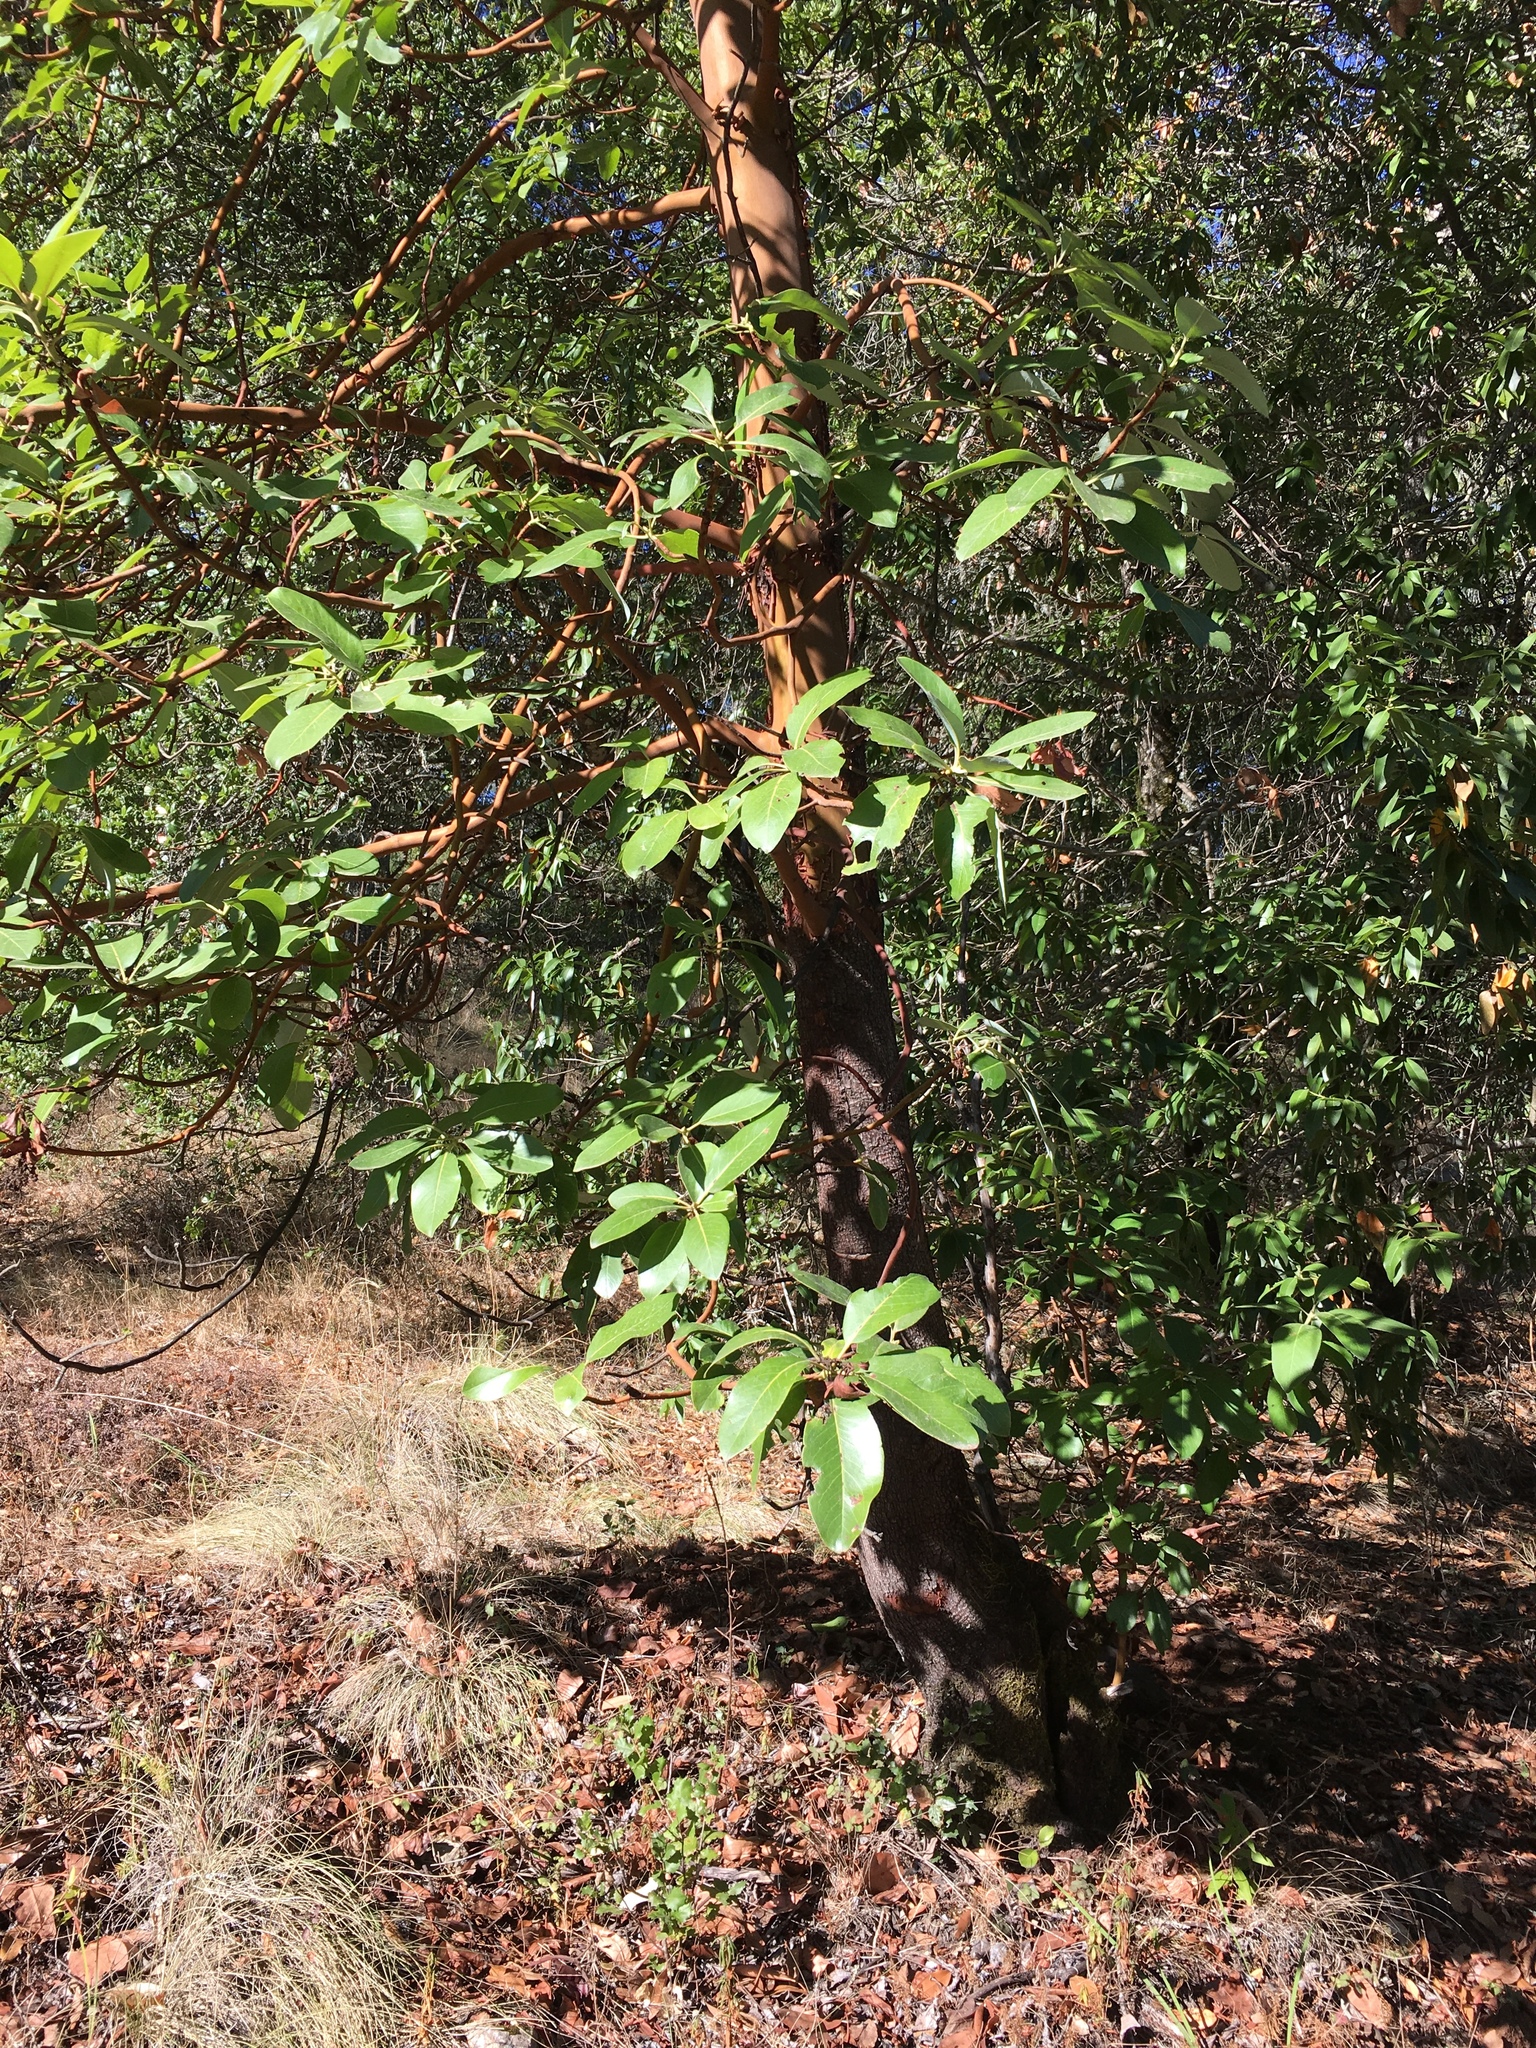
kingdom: Plantae
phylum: Tracheophyta
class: Magnoliopsida
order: Ericales
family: Ericaceae
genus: Arbutus
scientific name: Arbutus menziesii
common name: Pacific madrone
